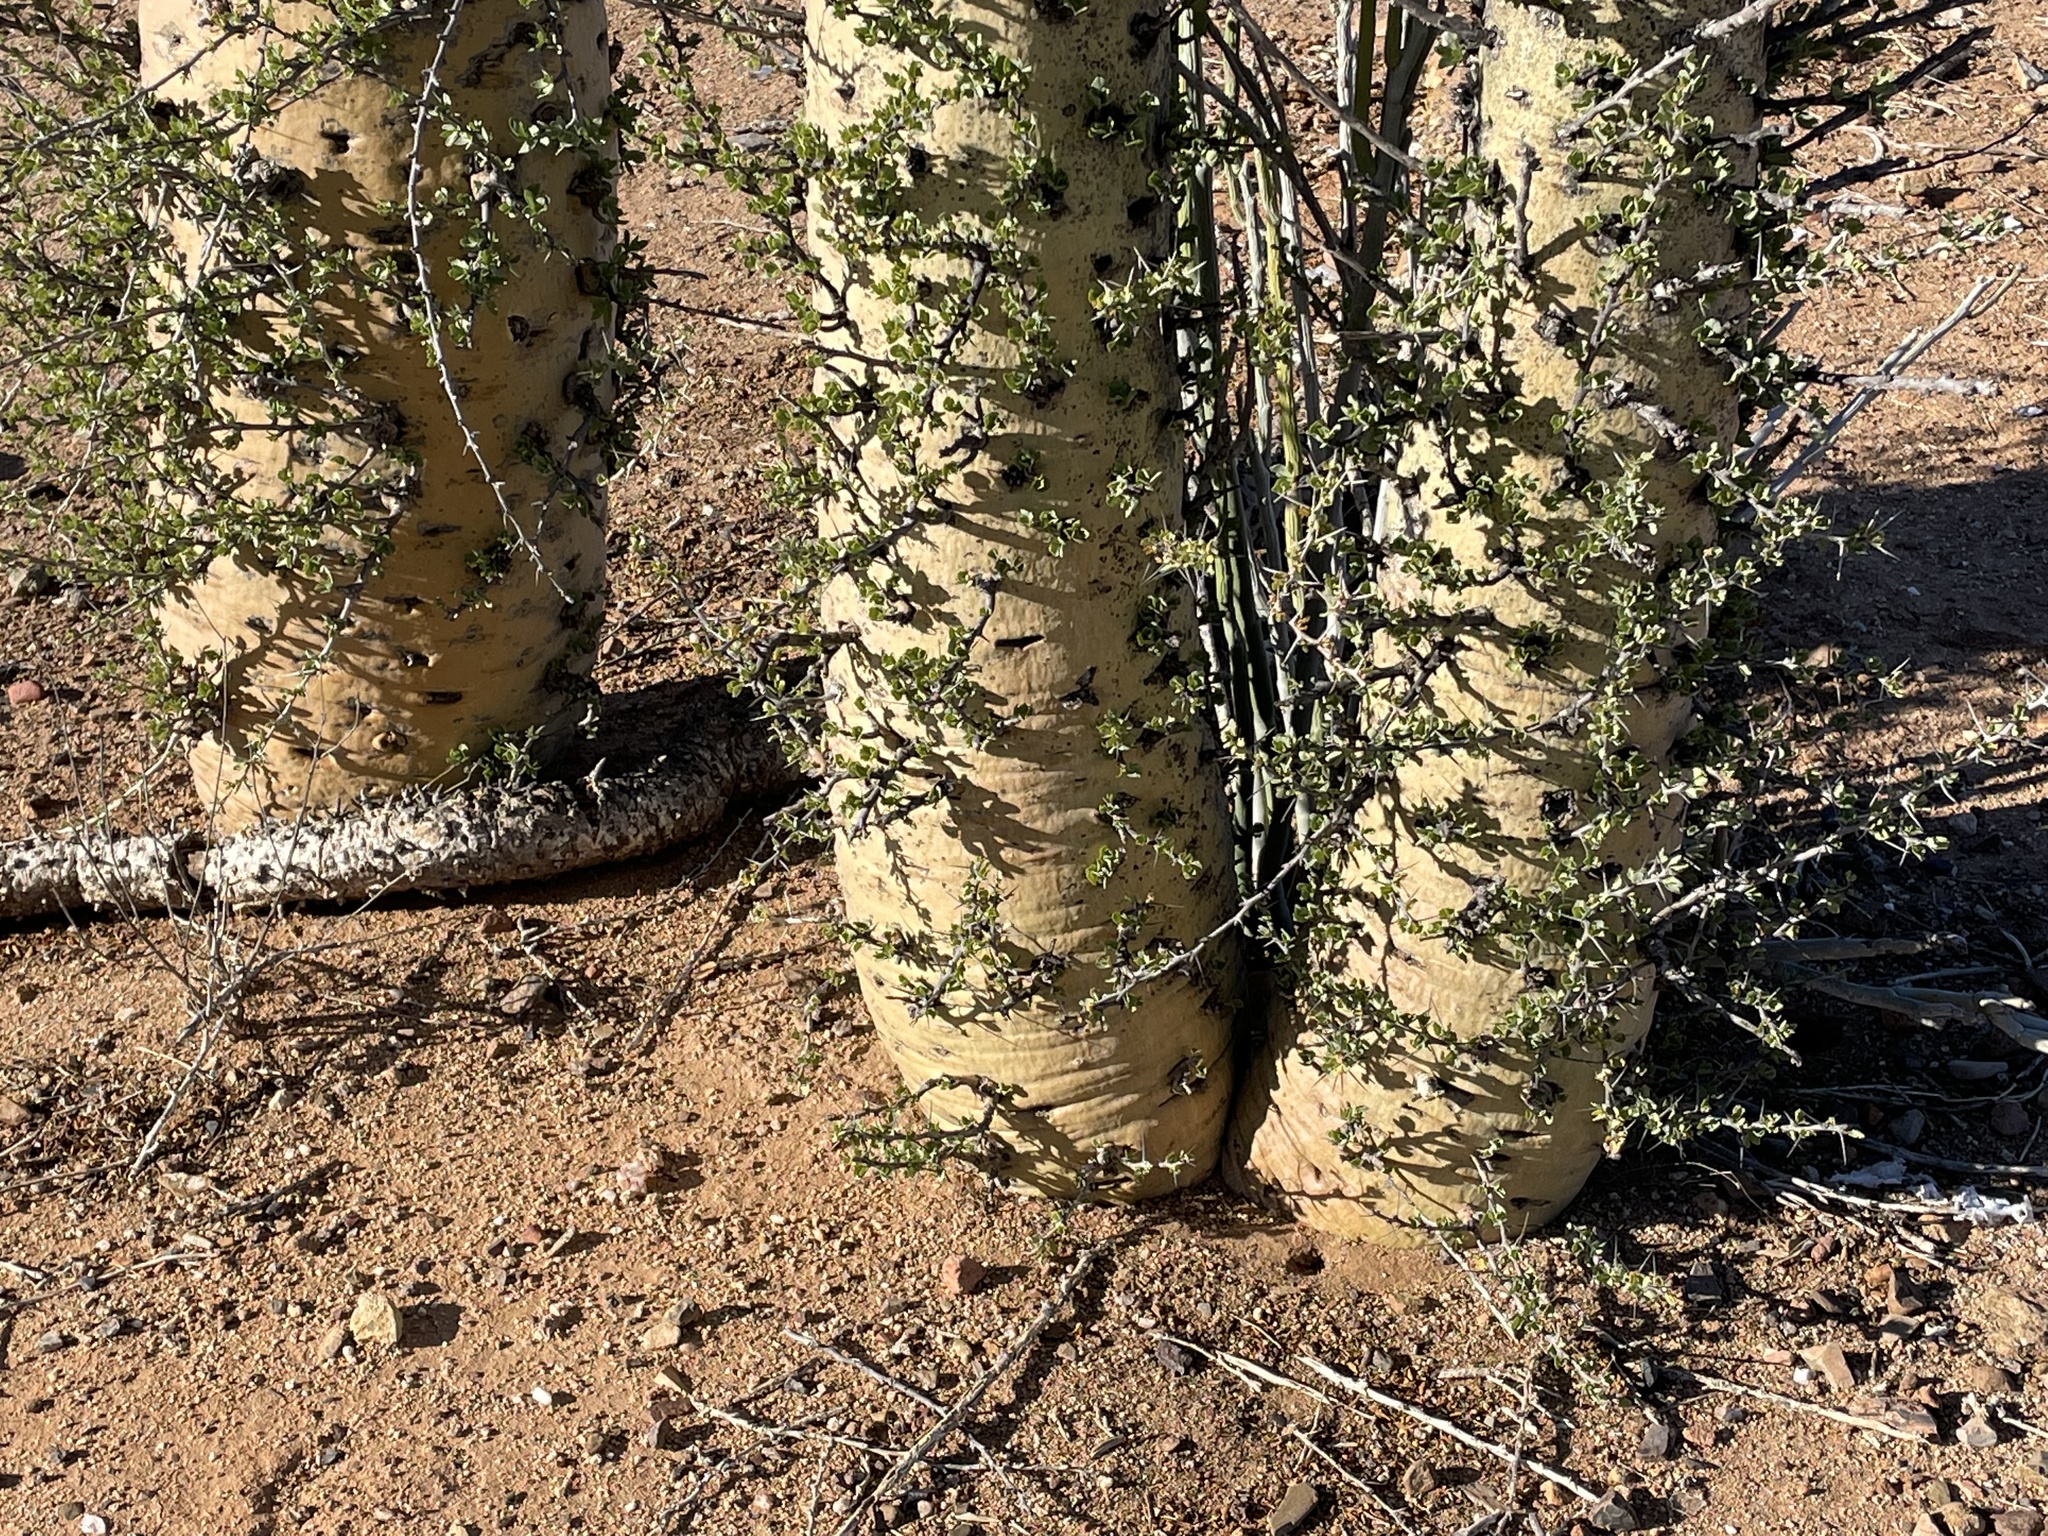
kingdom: Plantae
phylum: Tracheophyta
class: Magnoliopsida
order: Ericales
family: Fouquieriaceae
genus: Fouquieria
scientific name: Fouquieria columnaris
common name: Boojumtree
